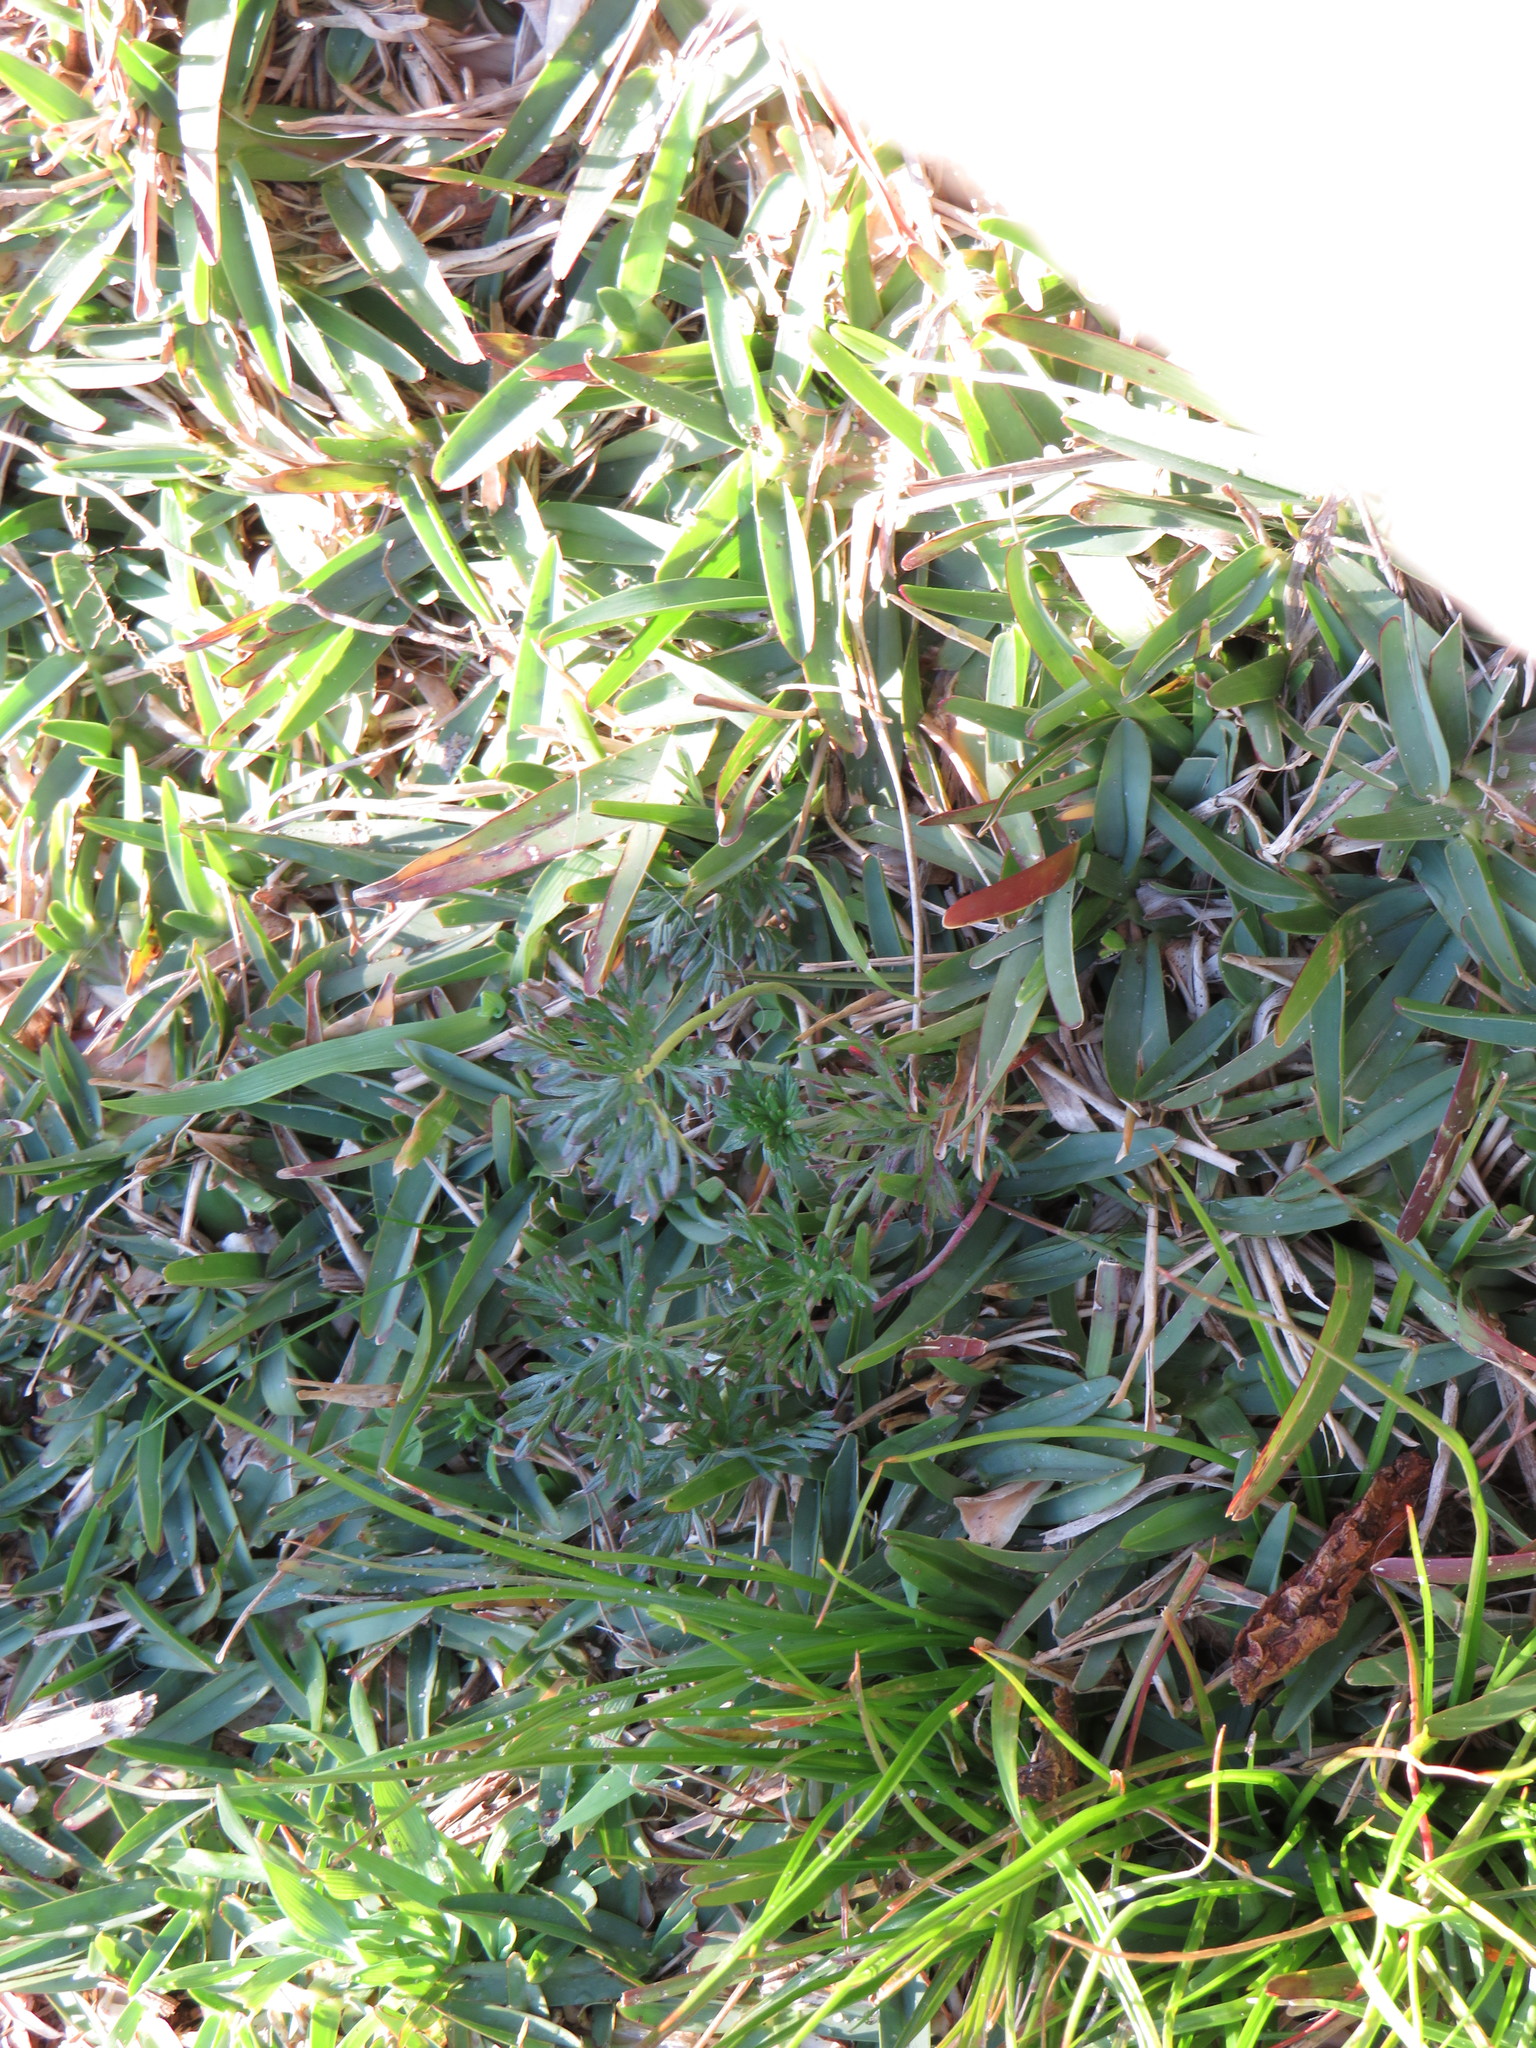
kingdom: Plantae
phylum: Tracheophyta
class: Magnoliopsida
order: Geraniales
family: Geraniaceae
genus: Geranium
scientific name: Geranium incanum
